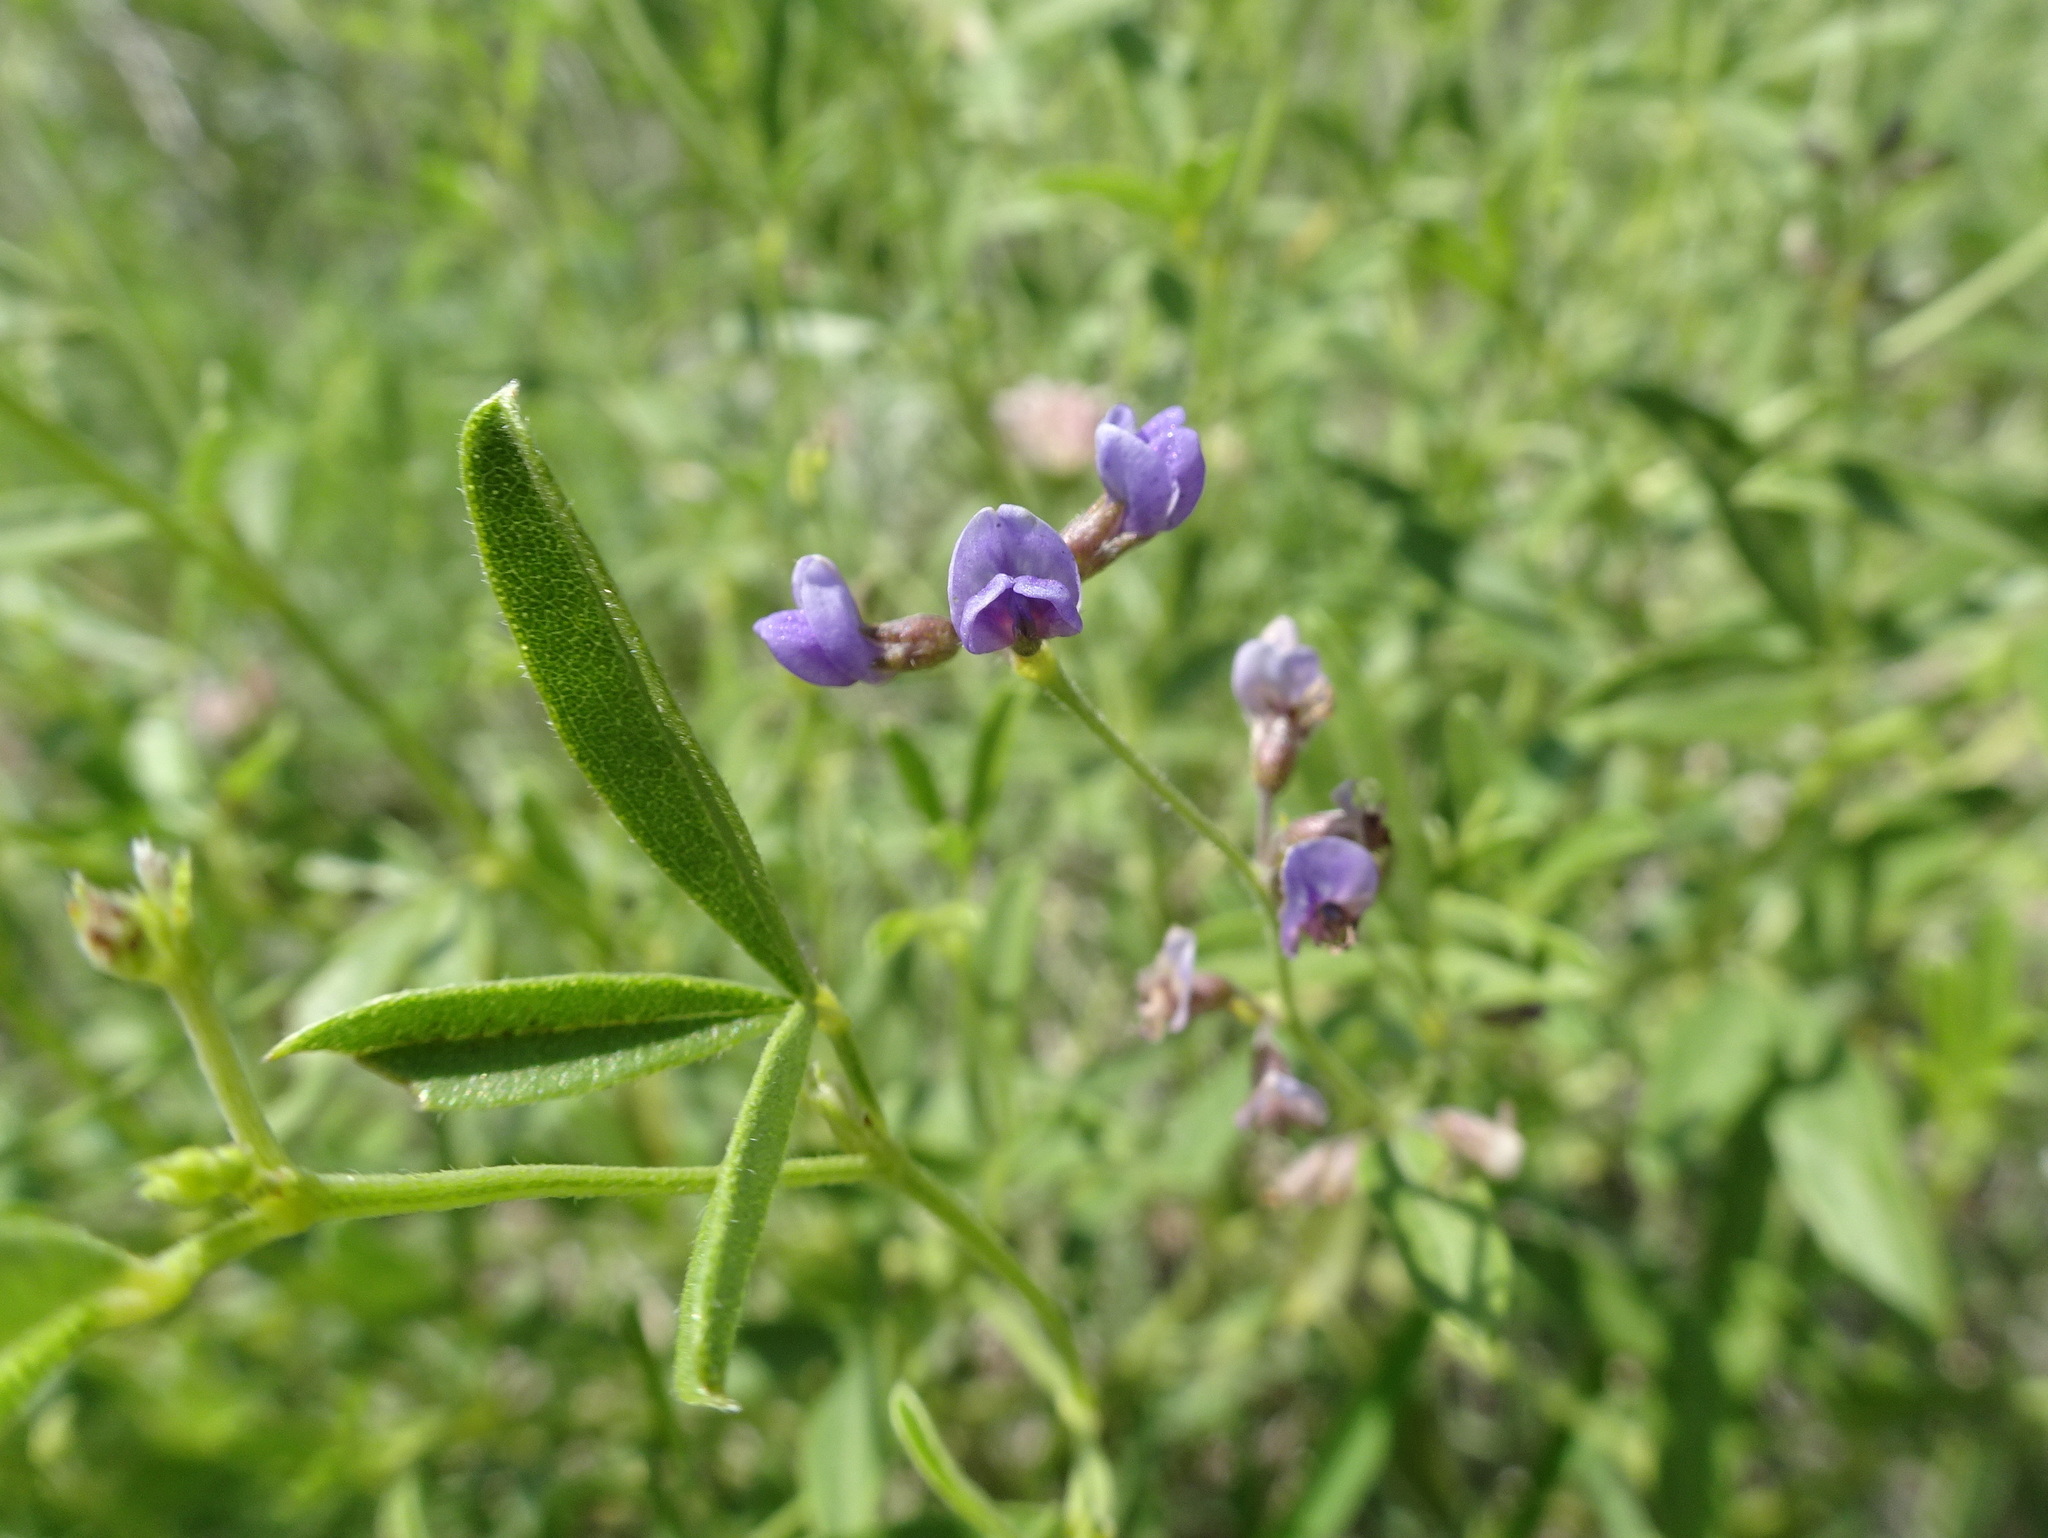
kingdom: Plantae
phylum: Tracheophyta
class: Magnoliopsida
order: Fabales
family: Fabaceae
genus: Pediomelum
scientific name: Pediomelum tenuiflorum
